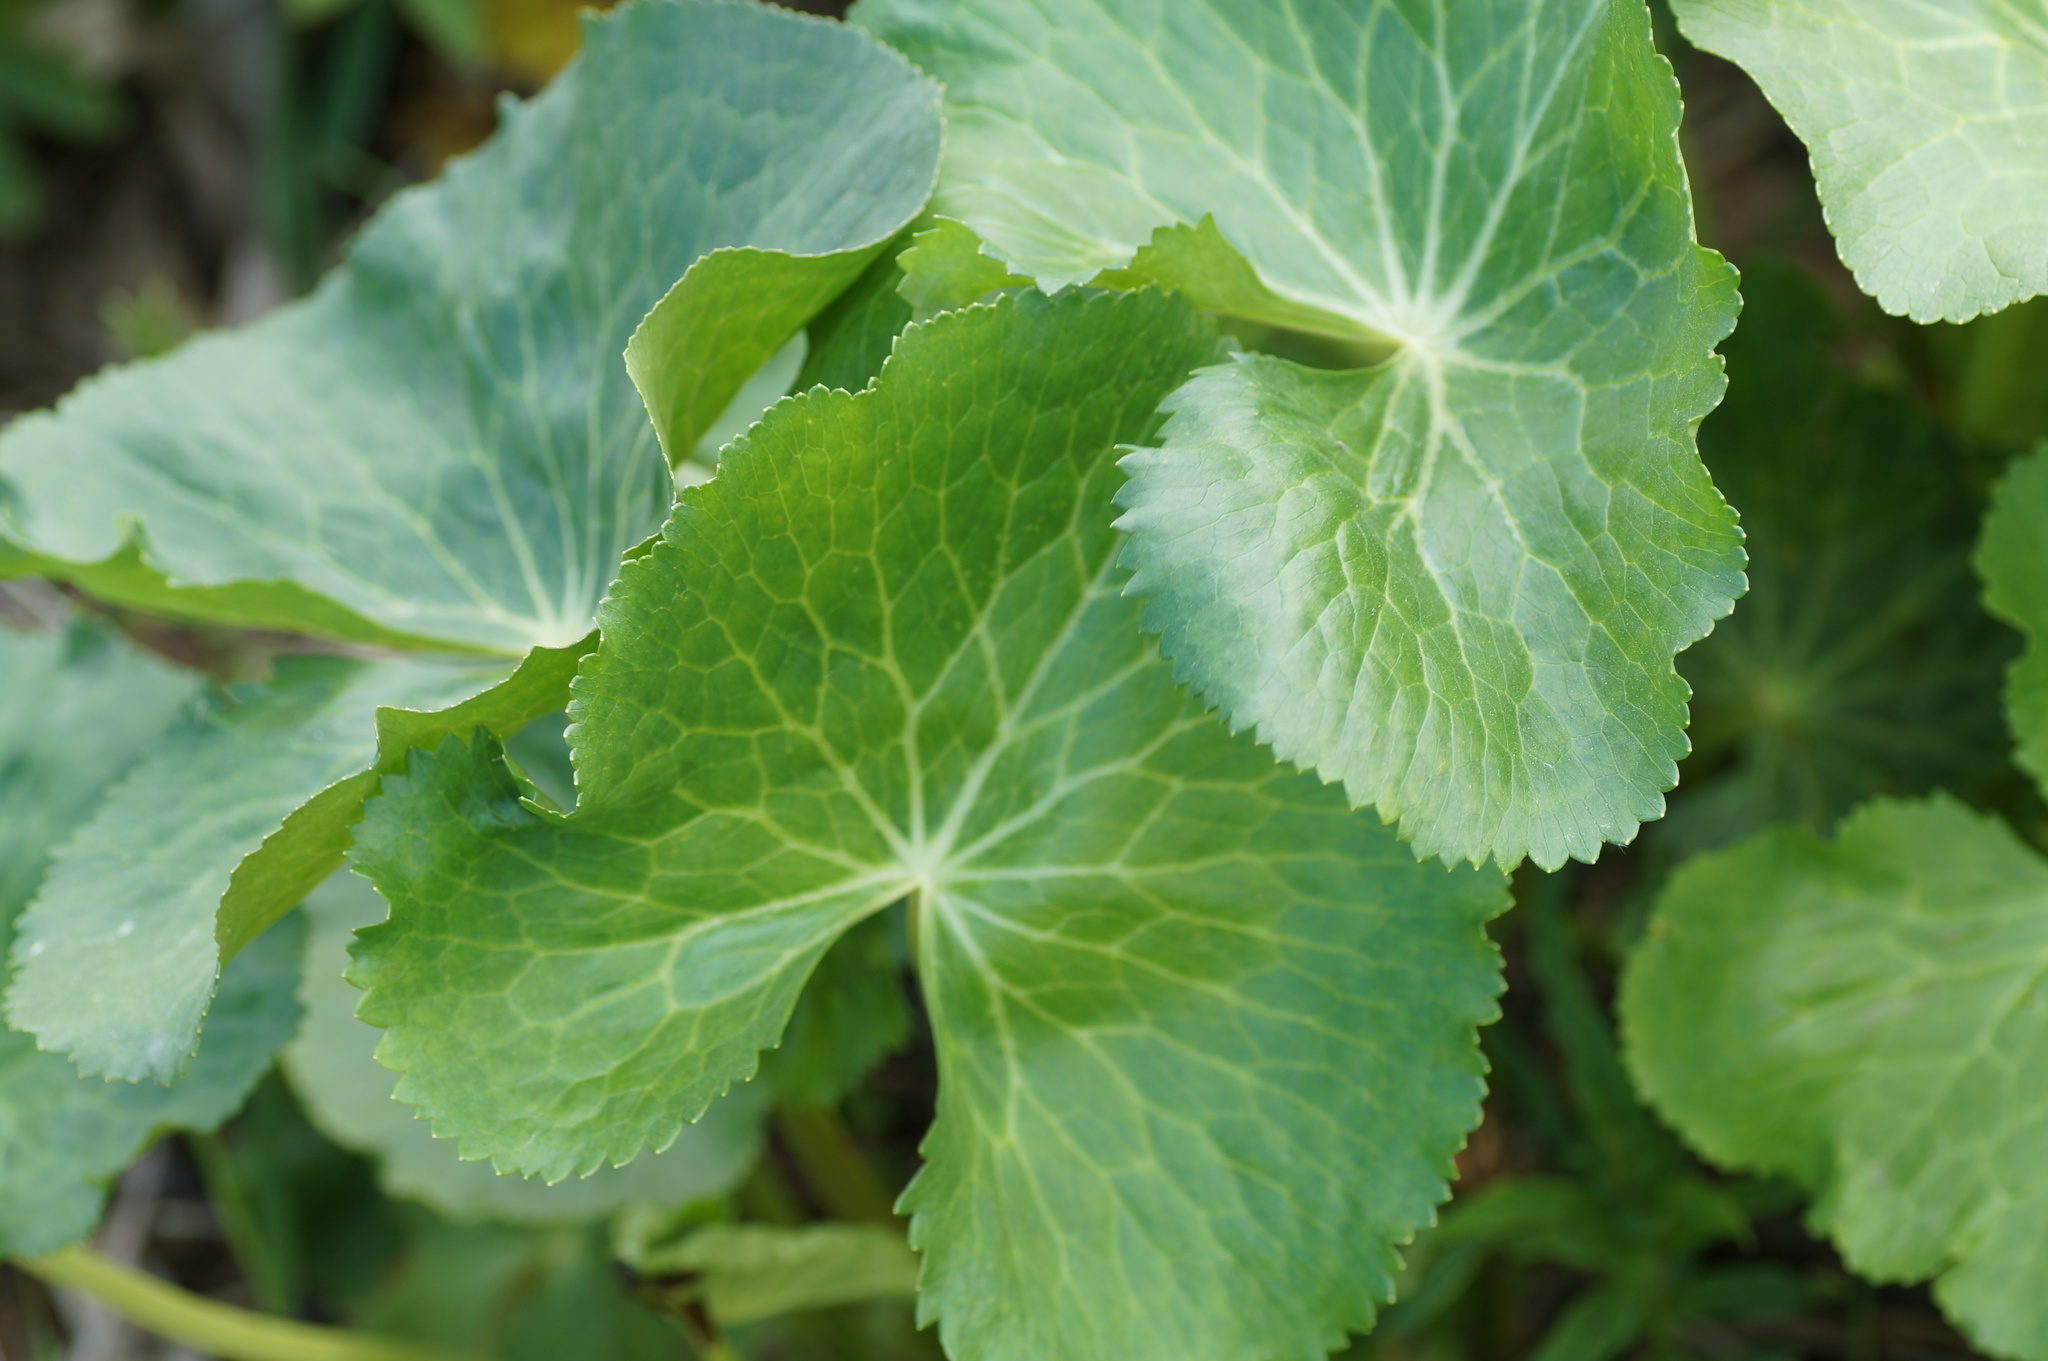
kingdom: Plantae
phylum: Tracheophyta
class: Magnoliopsida
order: Ranunculales
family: Ranunculaceae
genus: Caltha
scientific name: Caltha palustris
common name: Marsh marigold
